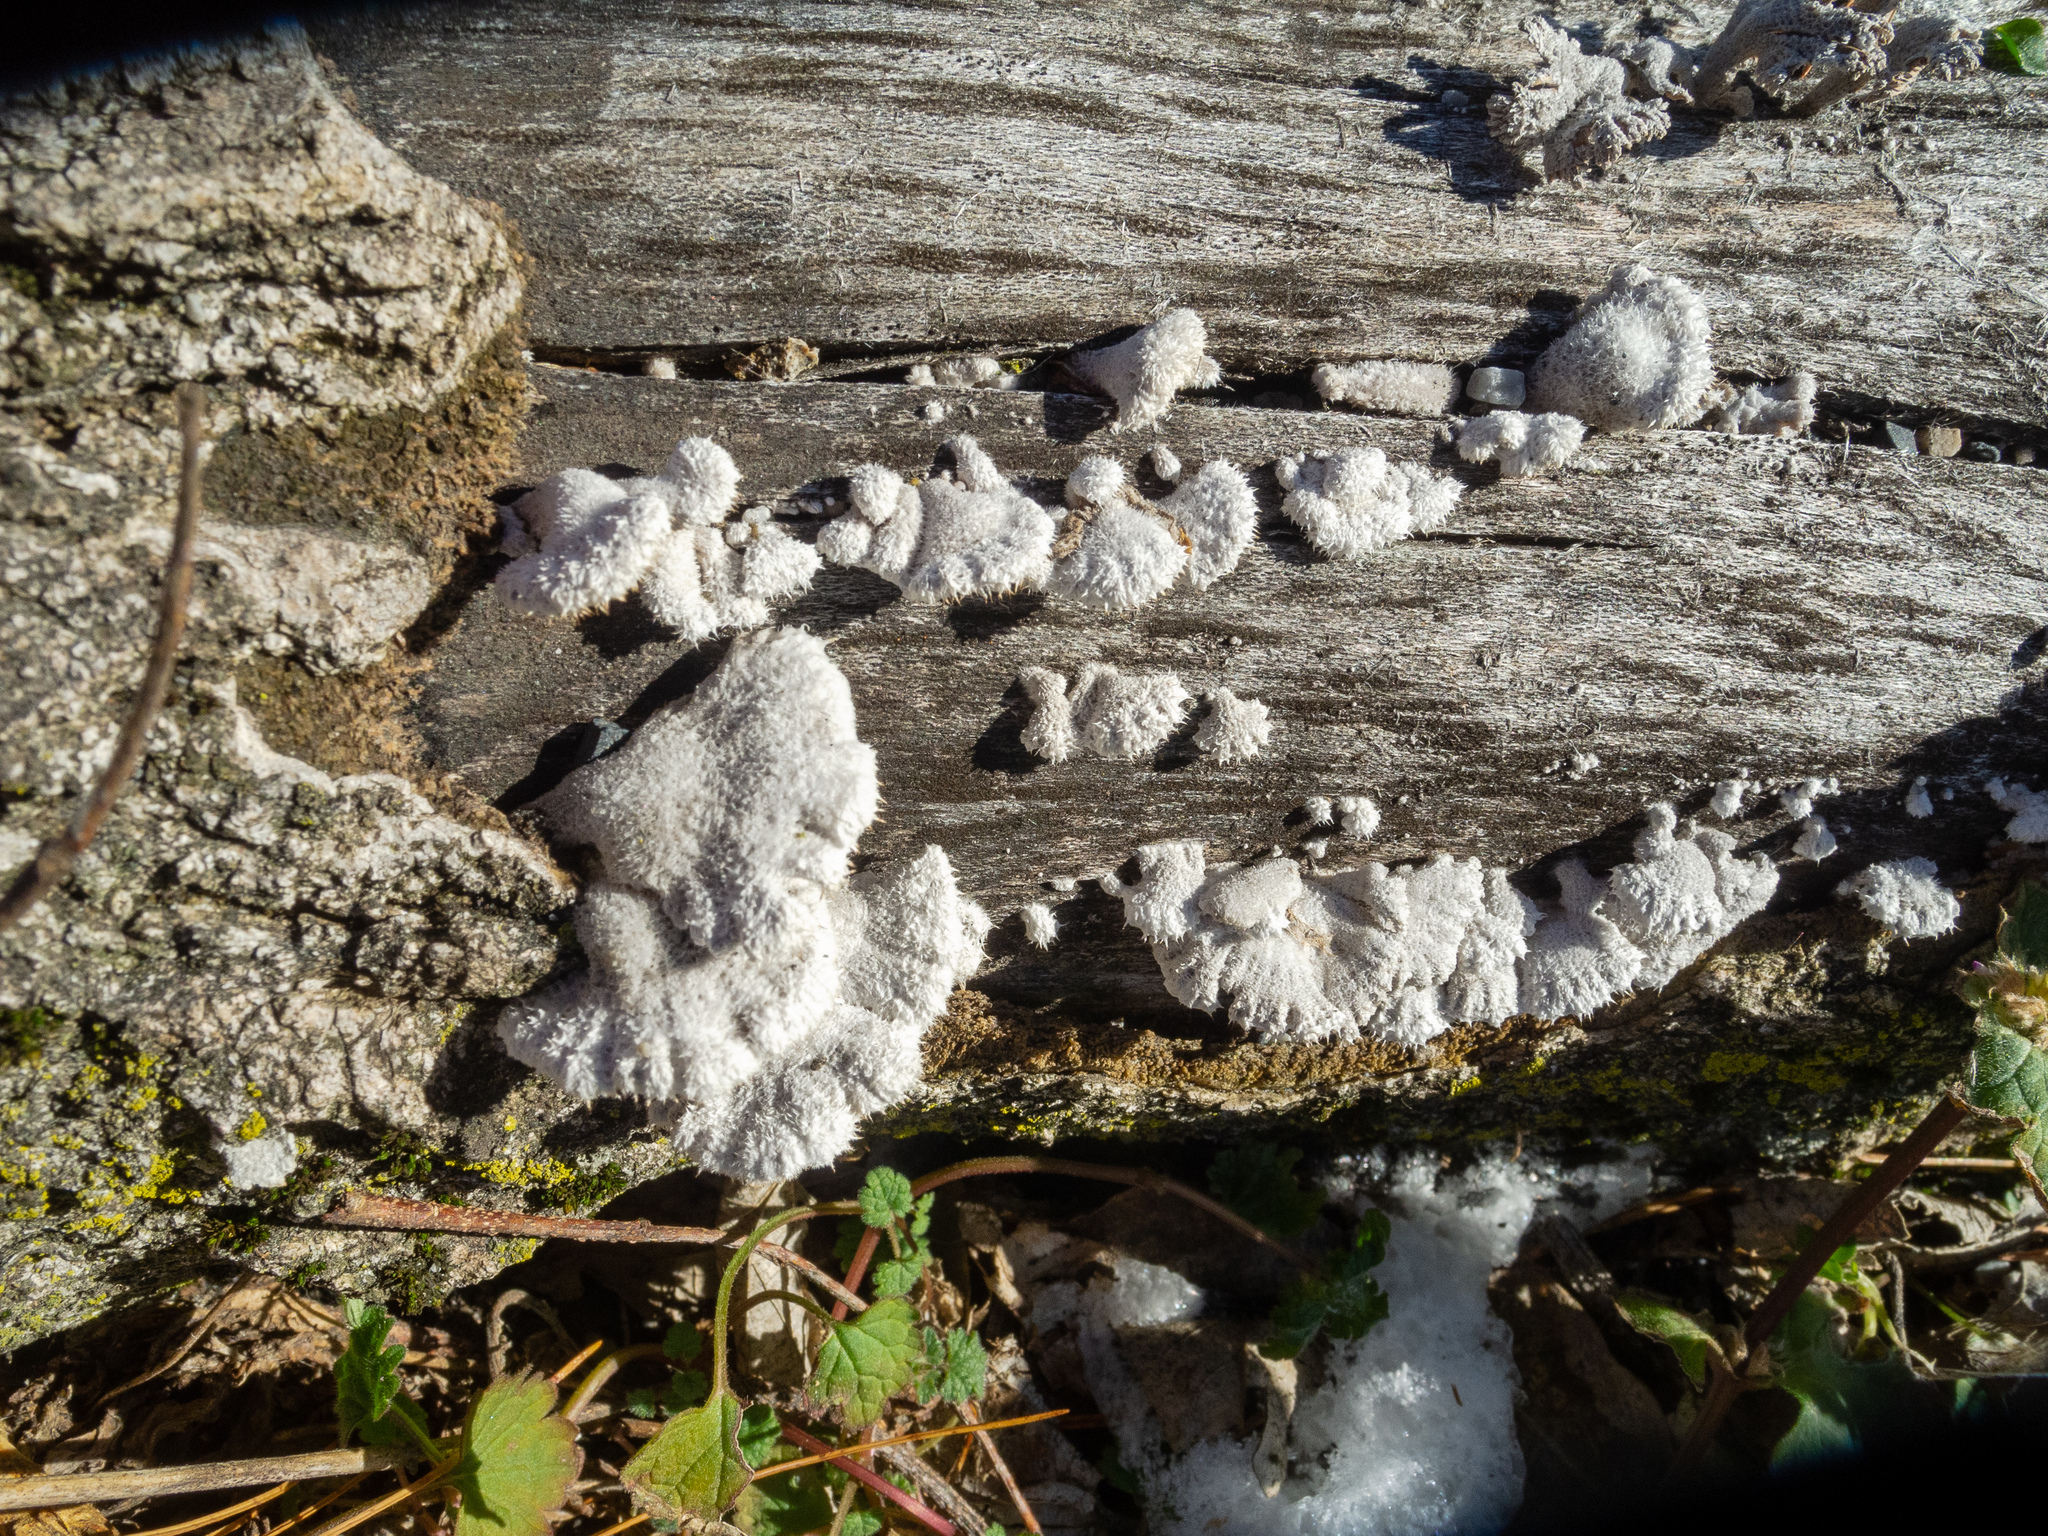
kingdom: Fungi
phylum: Basidiomycota
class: Agaricomycetes
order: Agaricales
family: Schizophyllaceae
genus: Schizophyllum
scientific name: Schizophyllum commune
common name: Common porecrust
